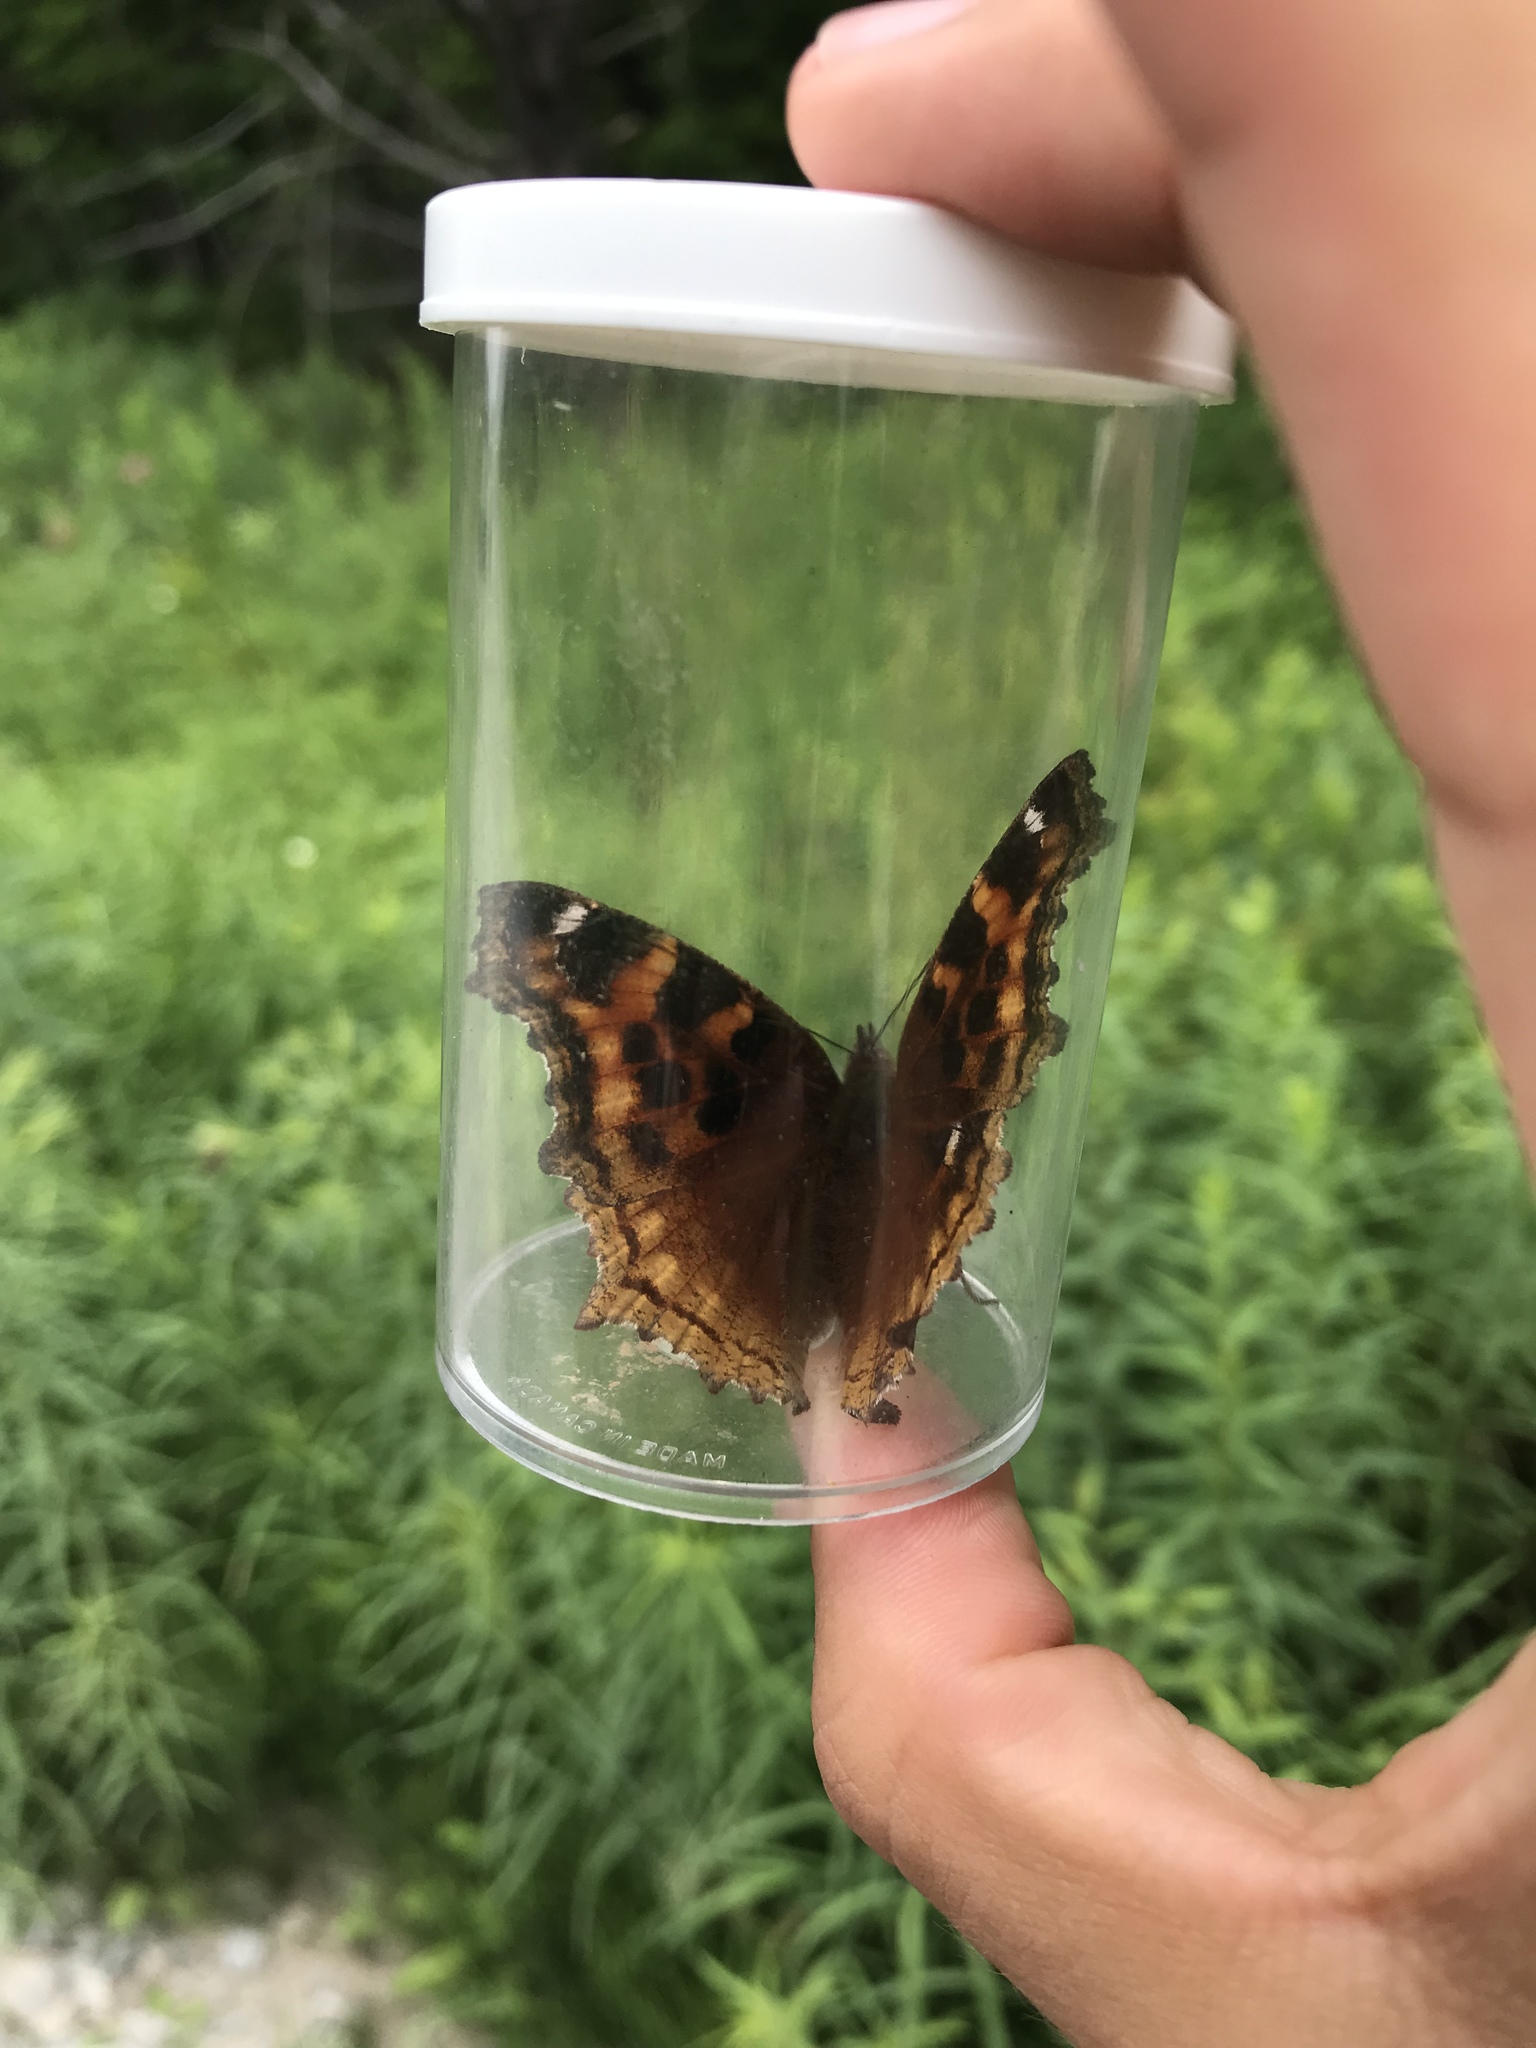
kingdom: Animalia
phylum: Arthropoda
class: Insecta
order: Lepidoptera
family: Nymphalidae
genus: Polygonia
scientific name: Polygonia vaualbum
